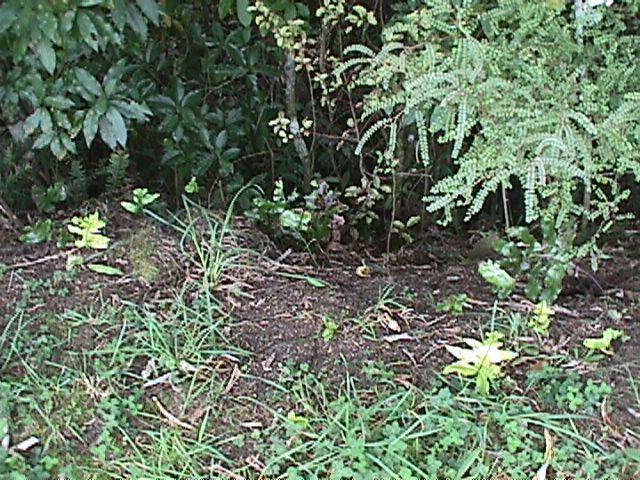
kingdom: Plantae
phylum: Tracheophyta
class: Magnoliopsida
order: Fabales
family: Fabaceae
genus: Sophora
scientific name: Sophora chathamica
